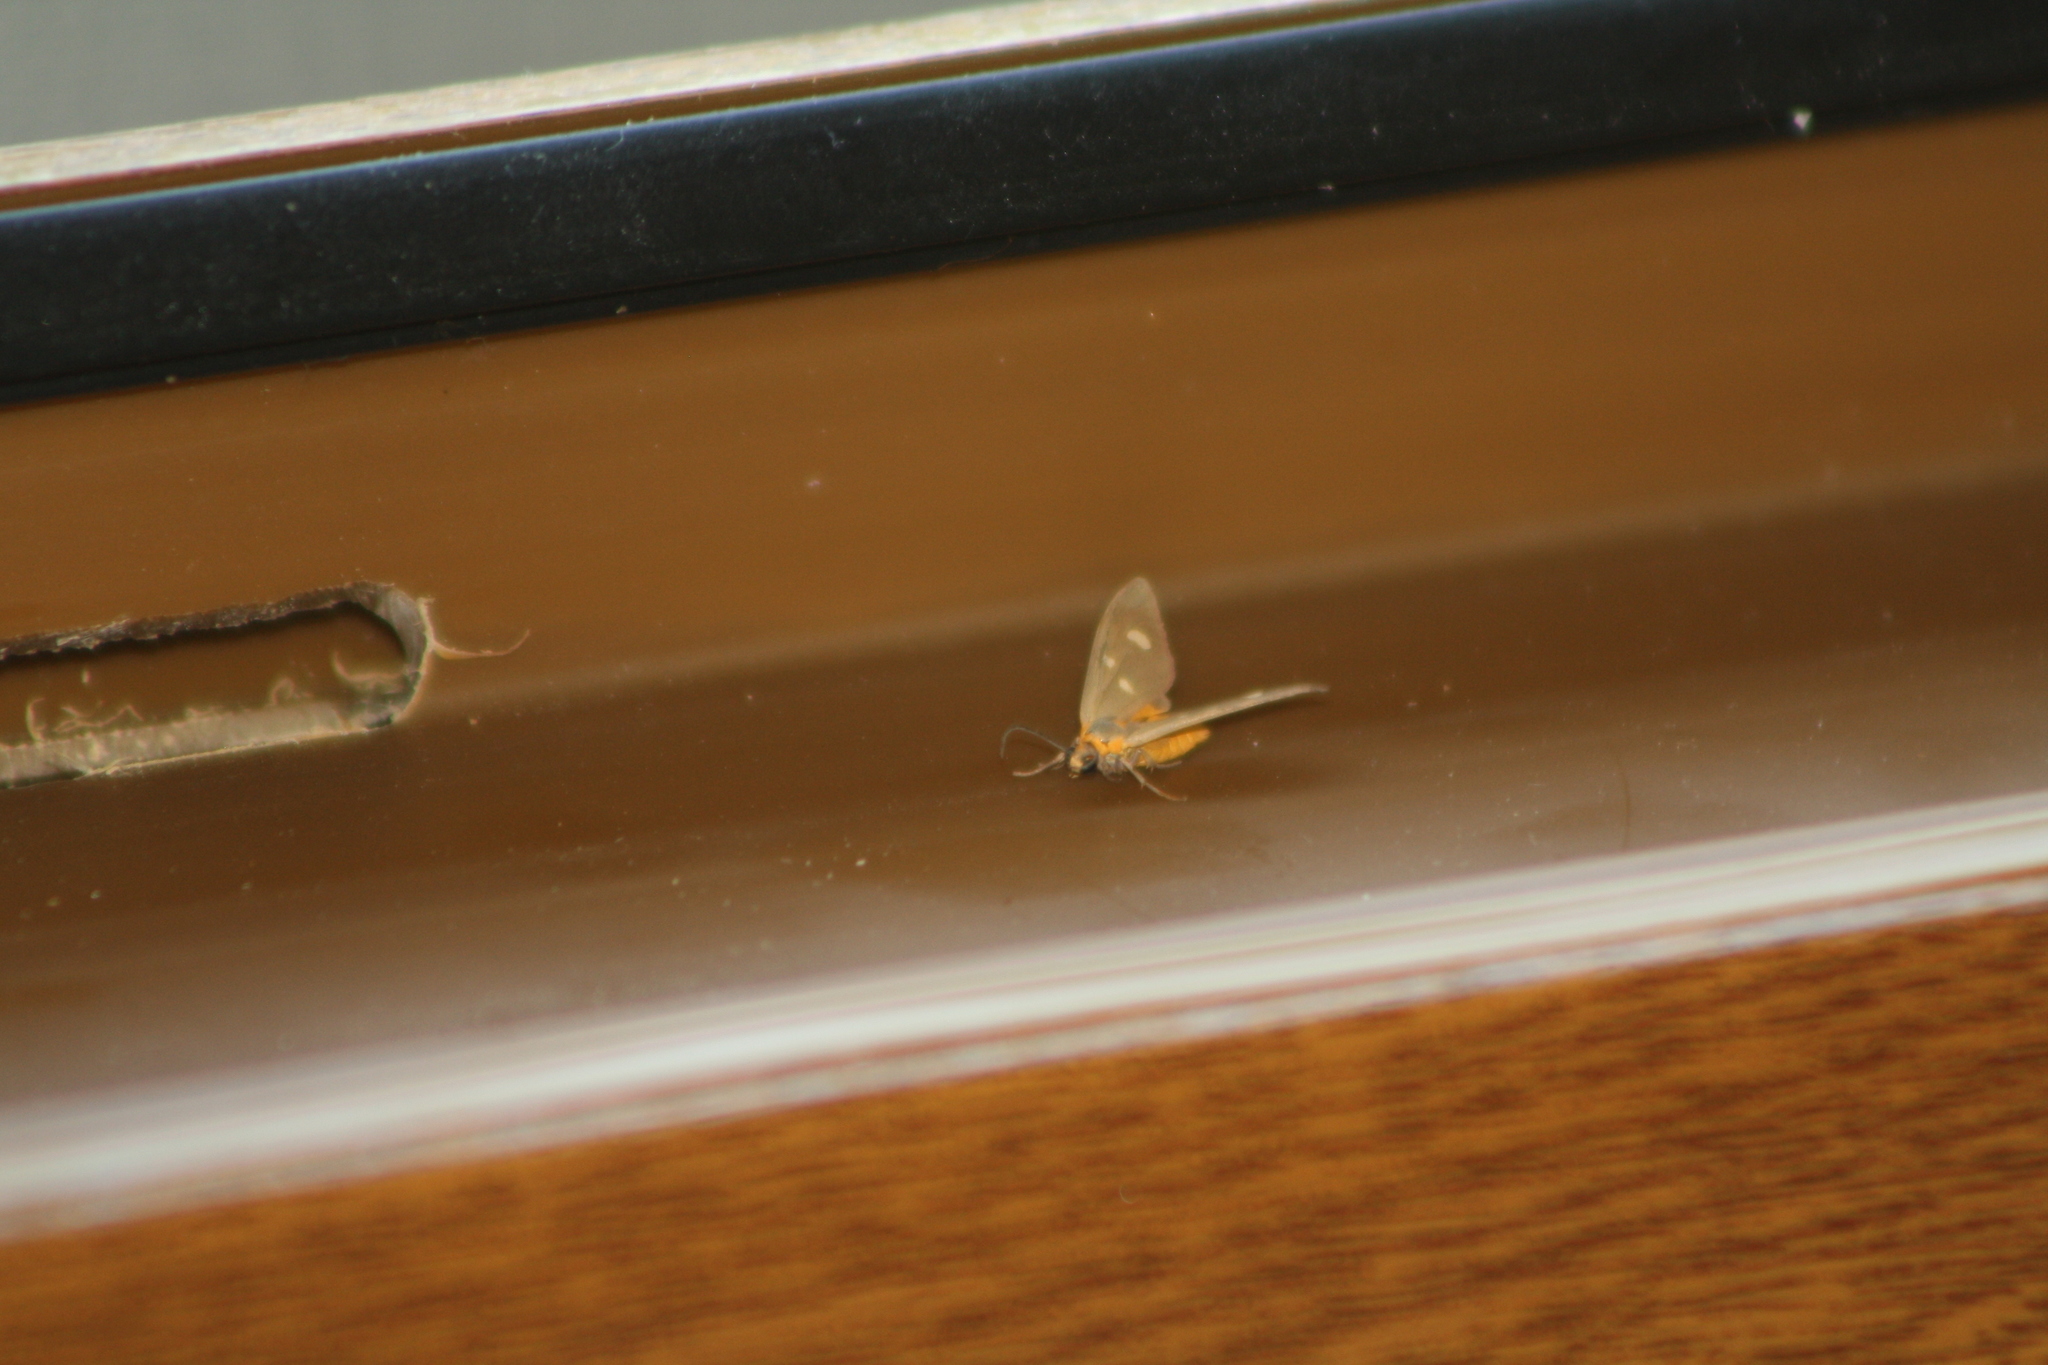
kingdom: Animalia
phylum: Arthropoda
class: Insecta
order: Lepidoptera
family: Erebidae
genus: Dysauxes
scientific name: Dysauxes punctata
